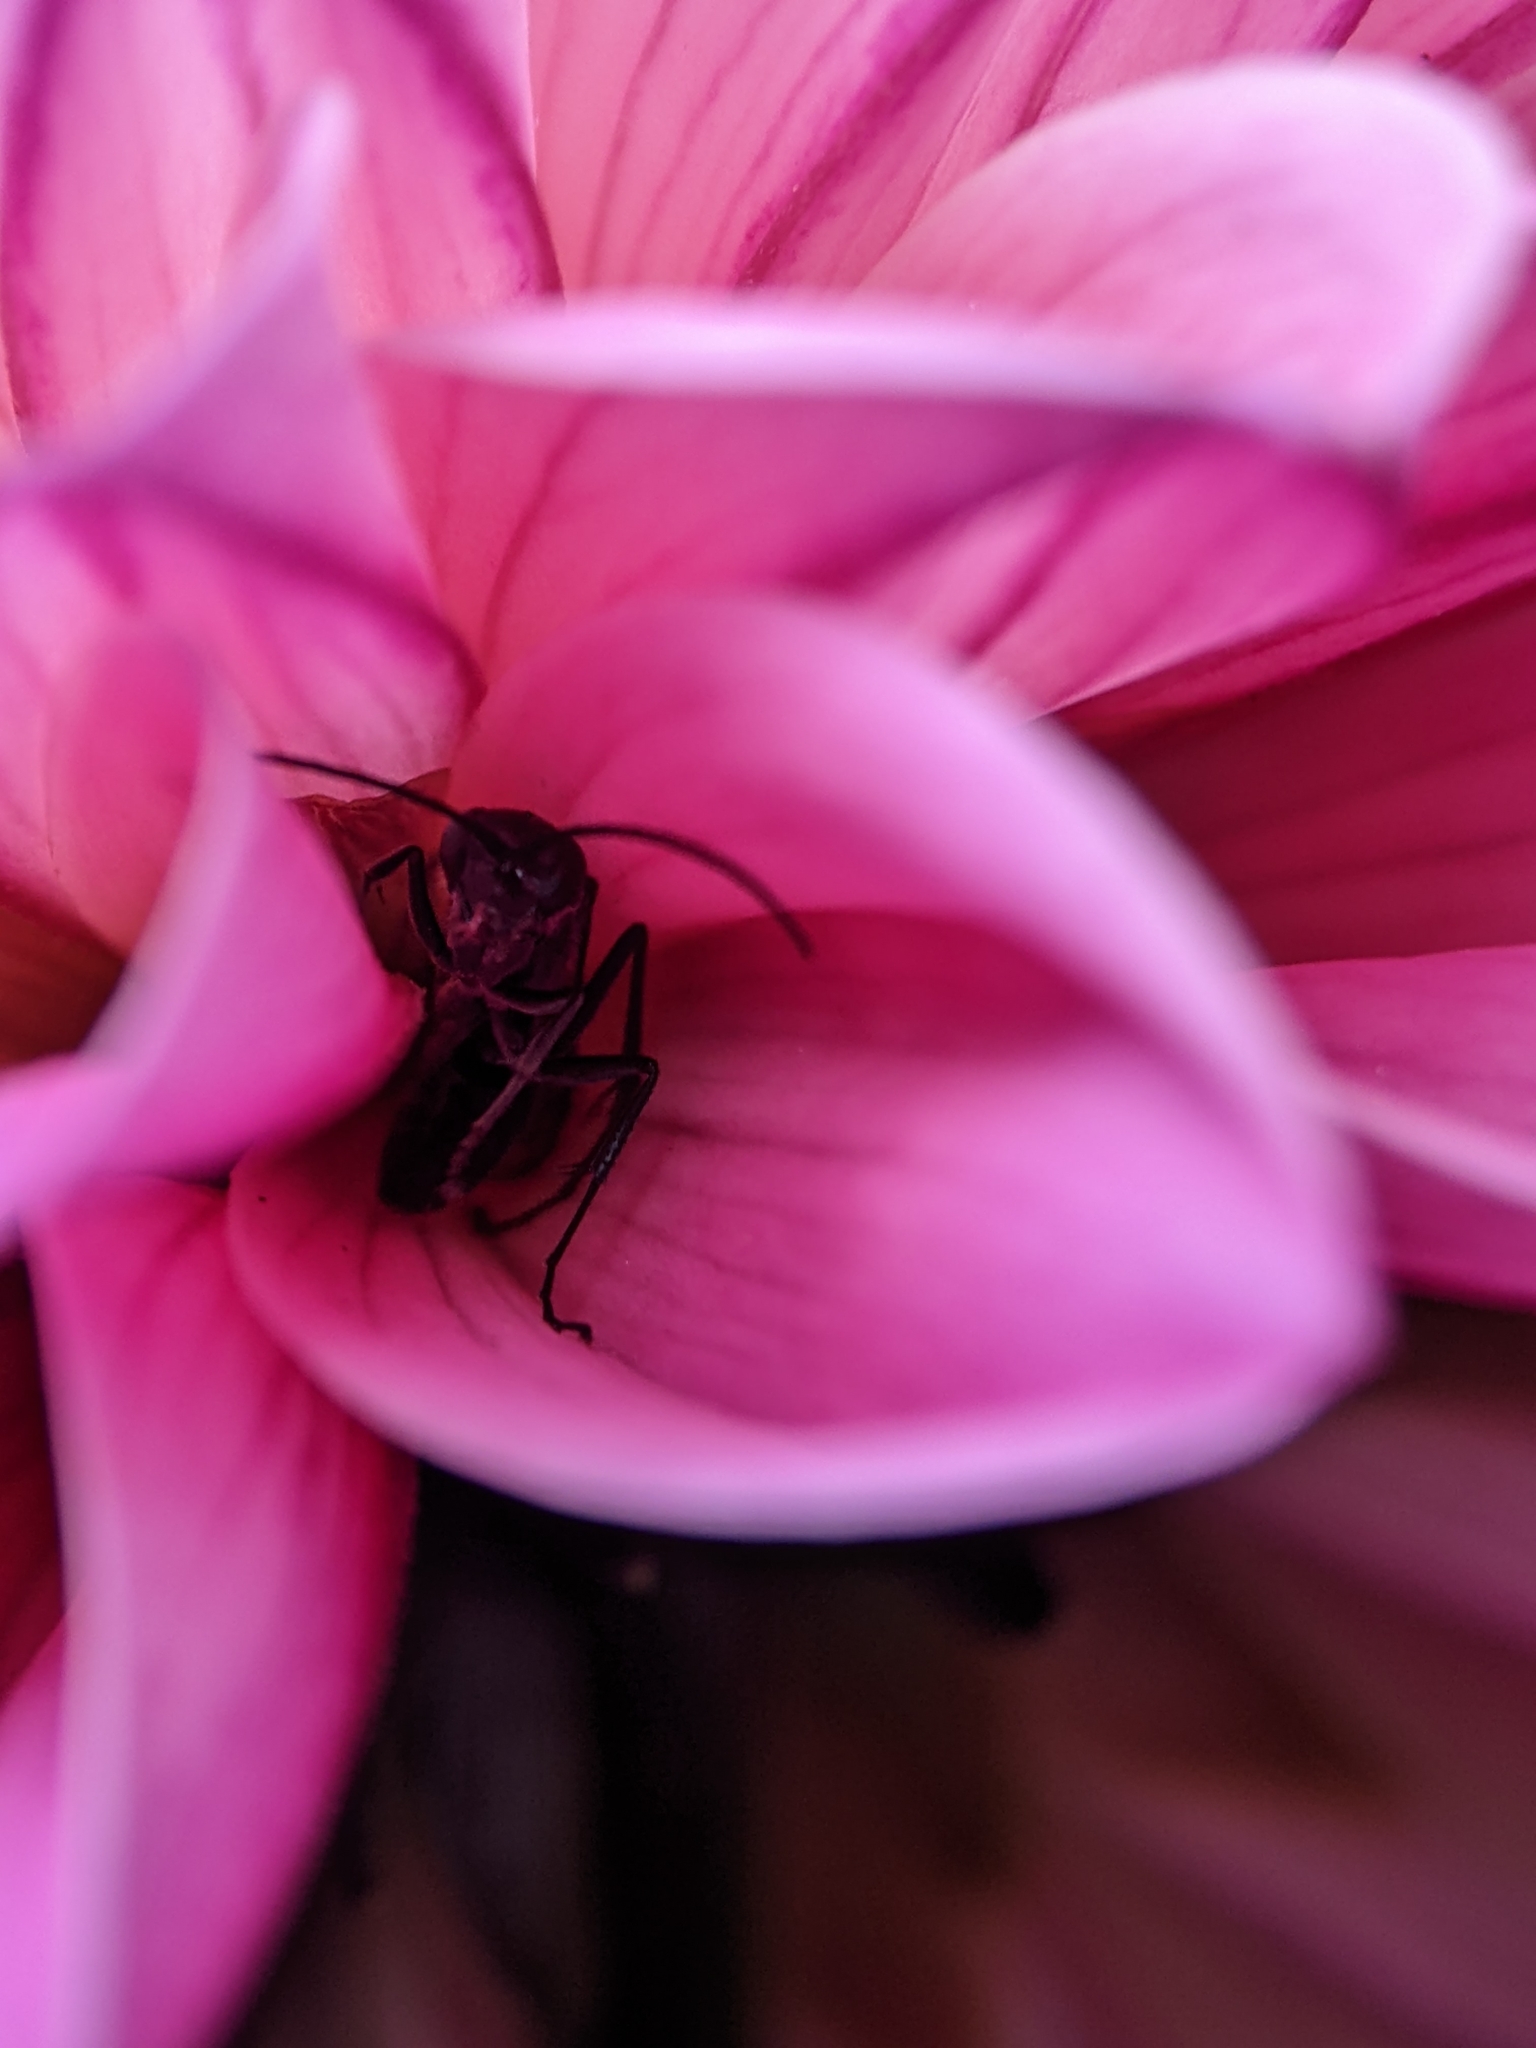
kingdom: Animalia
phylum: Arthropoda
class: Insecta
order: Hymenoptera
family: Pompilidae
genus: Auplopus
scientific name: Auplopus carbonarius
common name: Spider wasp
